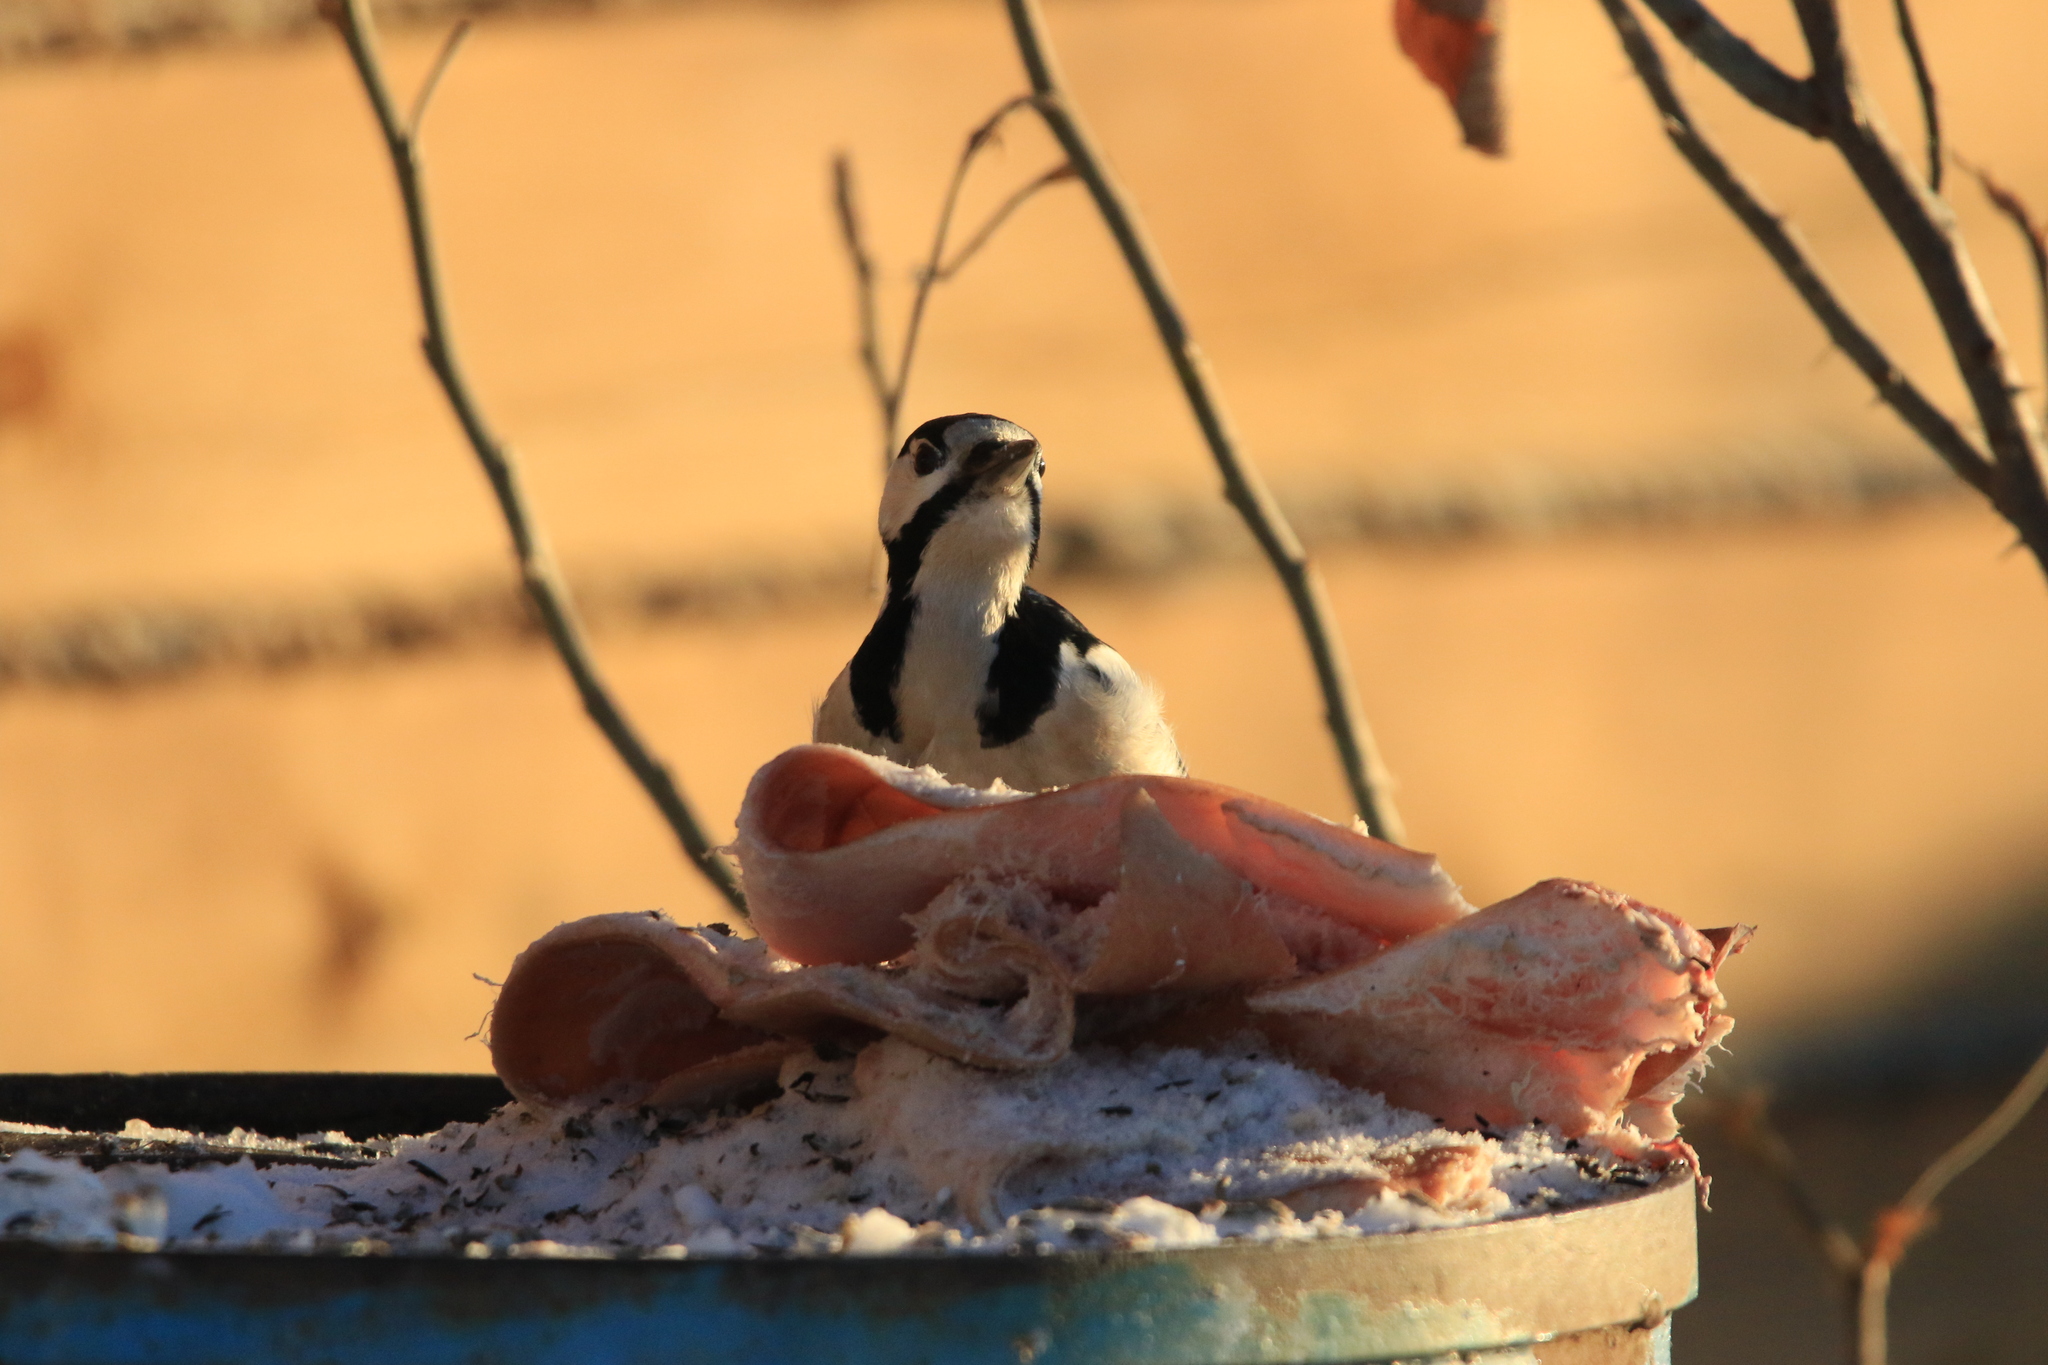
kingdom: Animalia
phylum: Chordata
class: Aves
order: Piciformes
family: Picidae
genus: Dendrocopos
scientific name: Dendrocopos major
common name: Great spotted woodpecker
